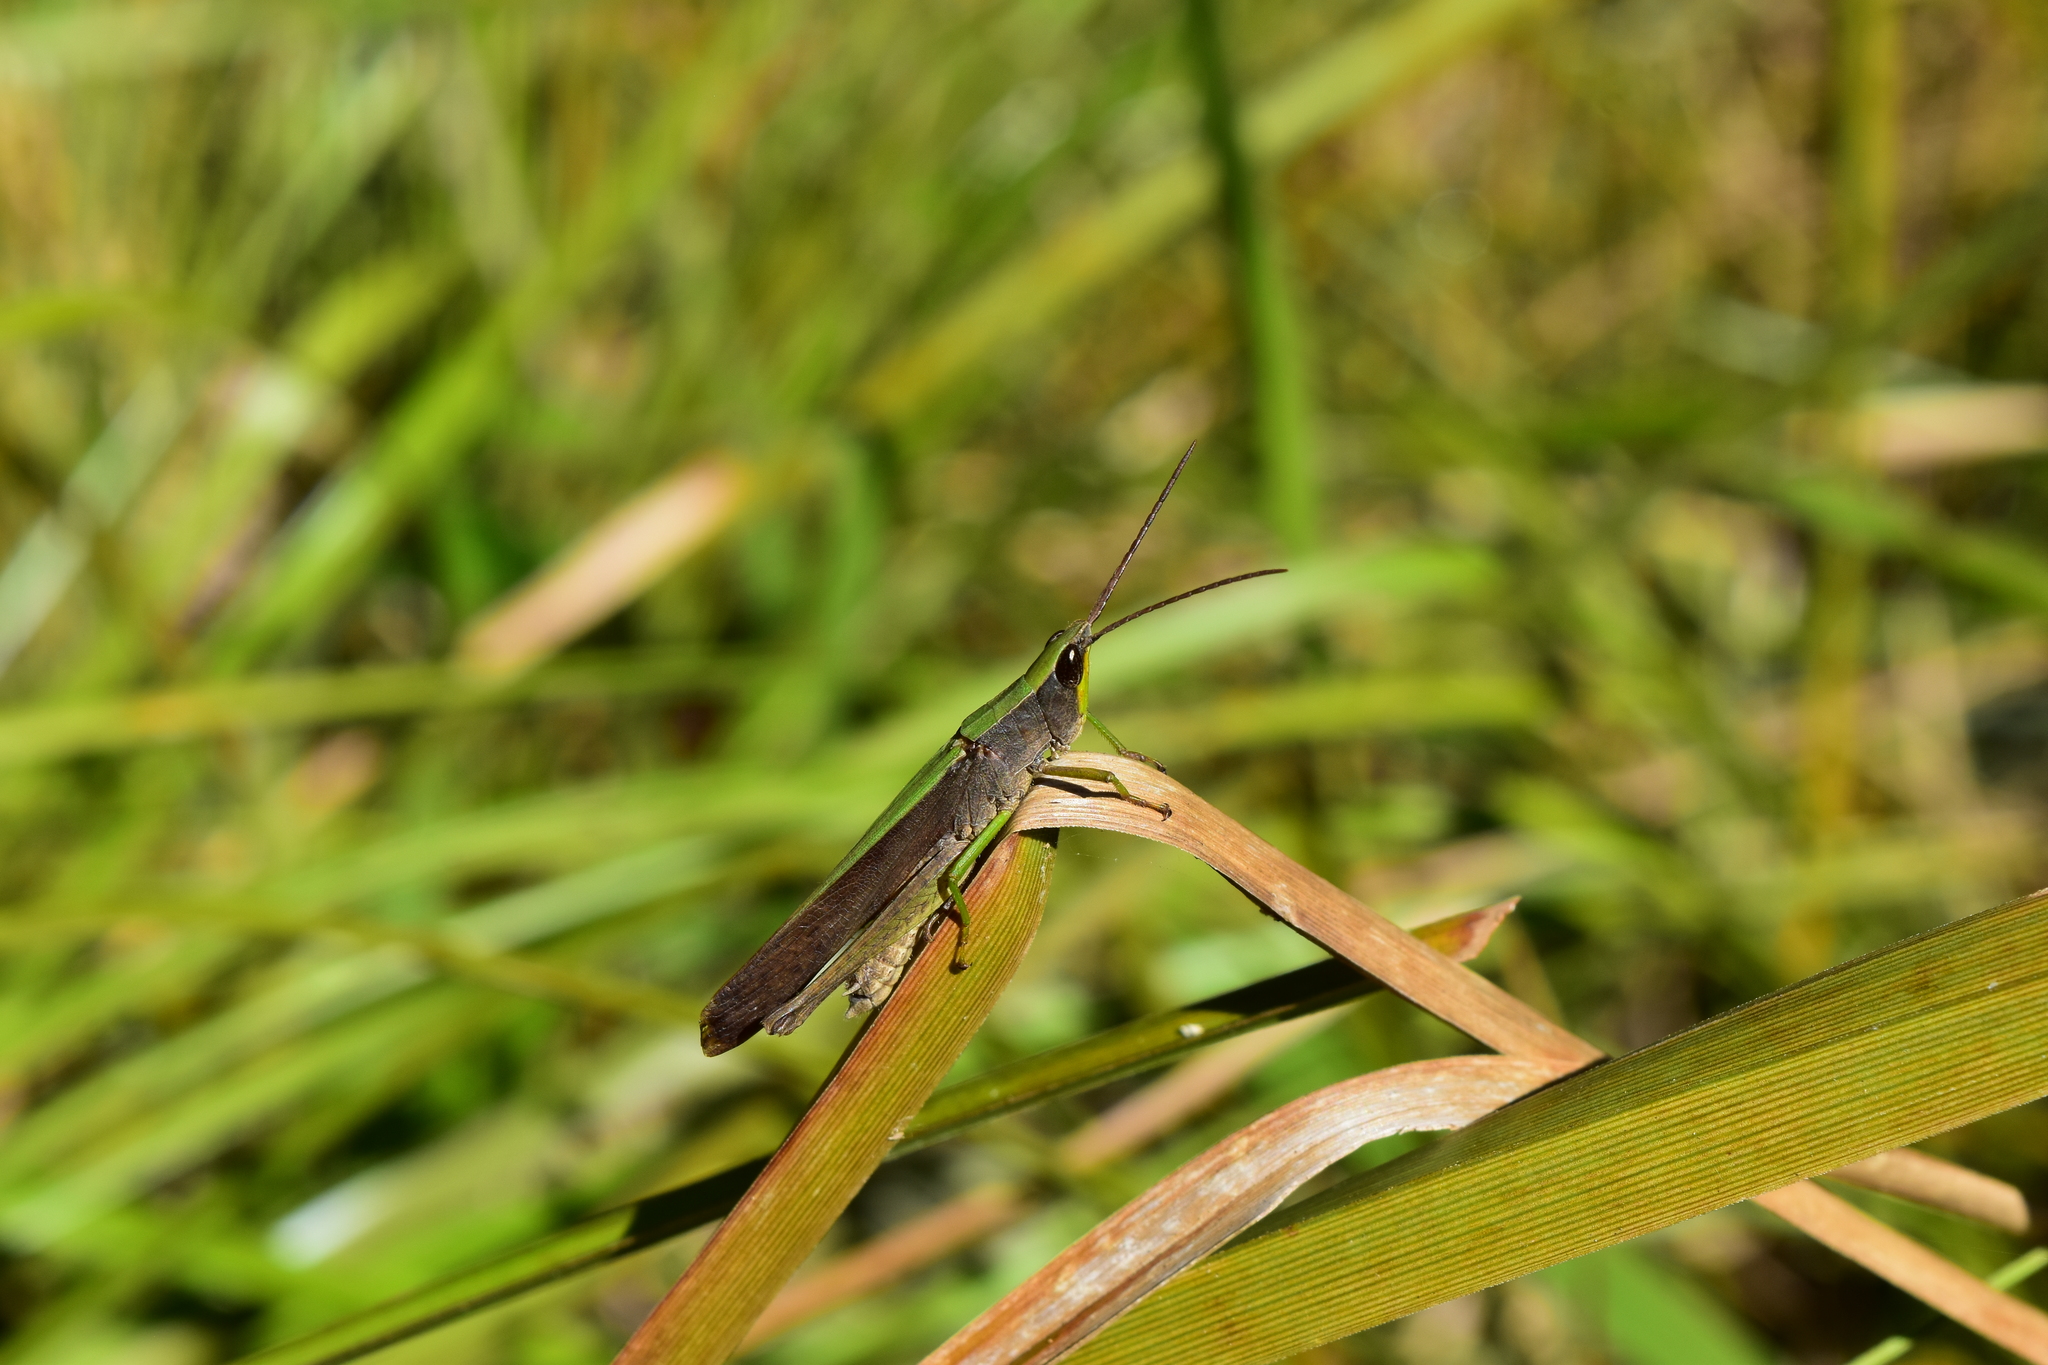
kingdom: Animalia
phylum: Arthropoda
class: Insecta
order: Orthoptera
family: Acrididae
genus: Metaleptea
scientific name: Metaleptea brevicornis
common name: Clipped-wing grasshopper
